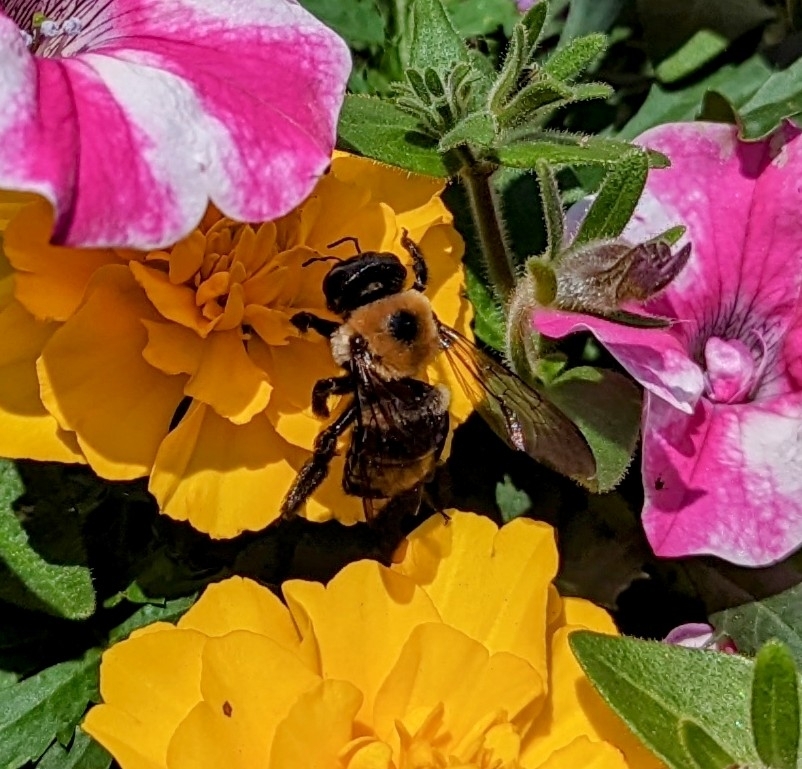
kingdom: Animalia
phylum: Arthropoda
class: Insecta
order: Hymenoptera
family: Apidae
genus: Xylocopa
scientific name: Xylocopa virginica
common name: Carpenter bee
